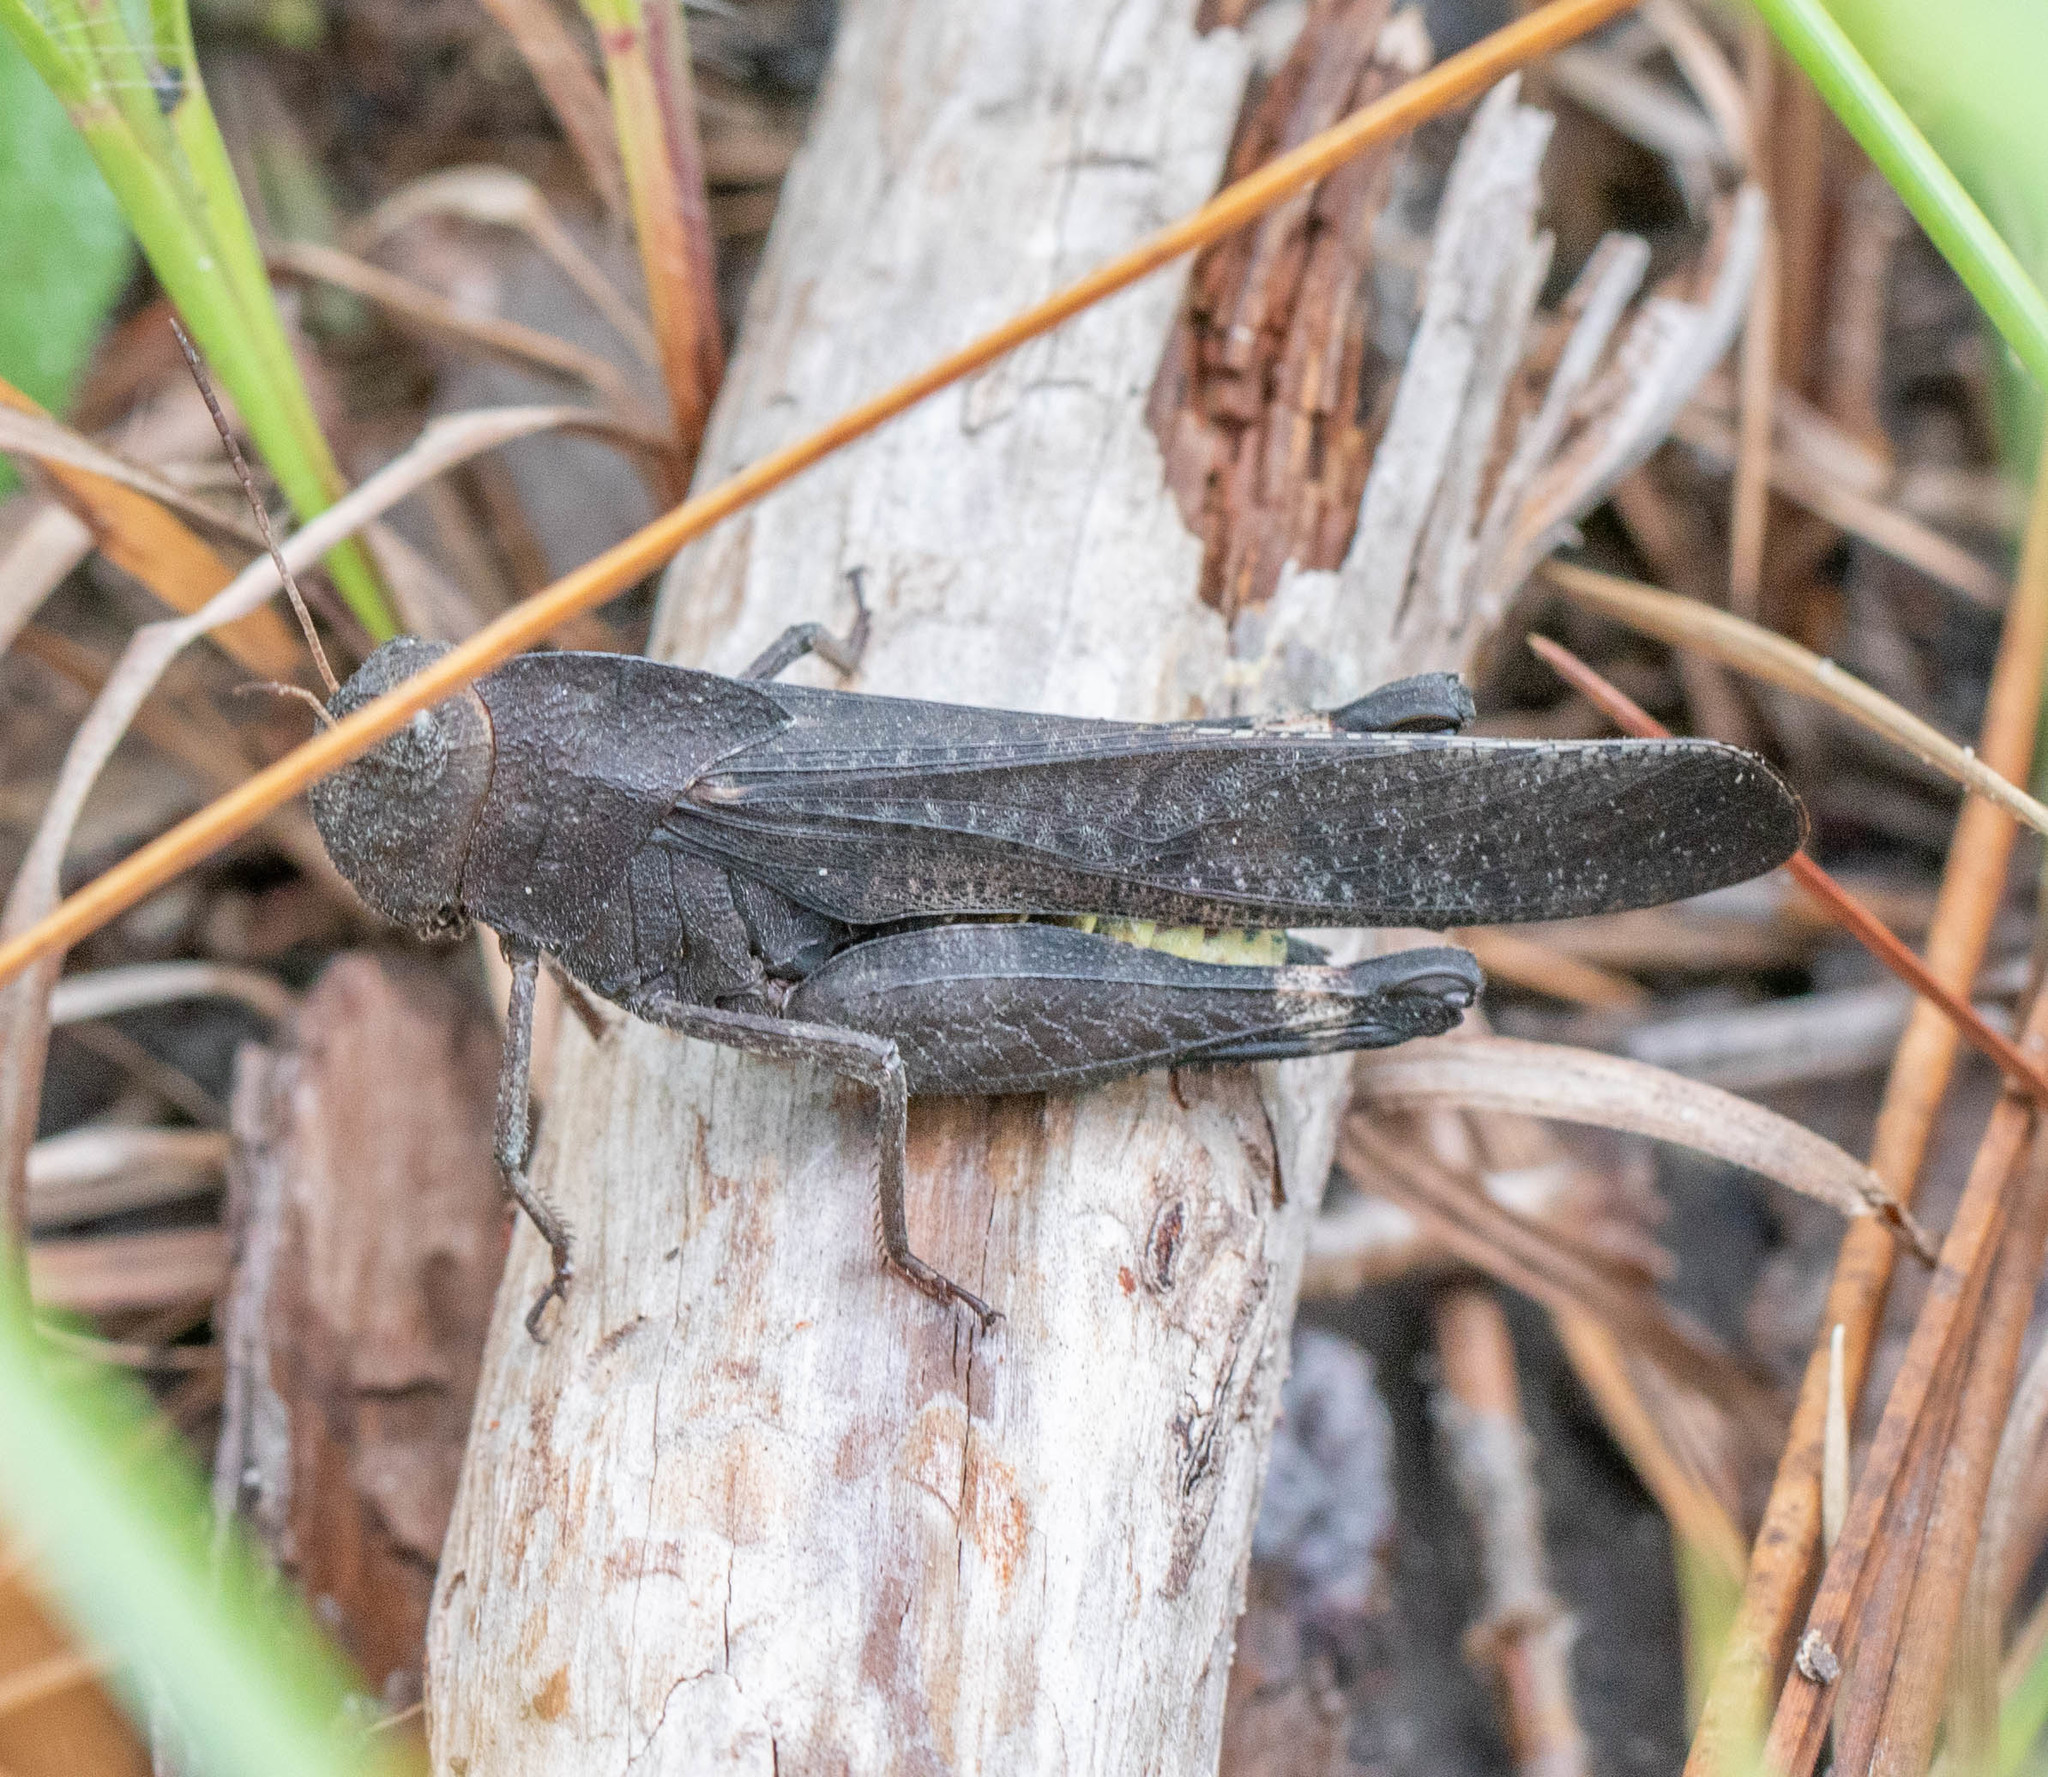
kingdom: Animalia
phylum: Arthropoda
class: Insecta
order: Orthoptera
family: Acrididae
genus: Arphia
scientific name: Arphia xanthoptera
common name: Autumn yellow-winged grasshopper
